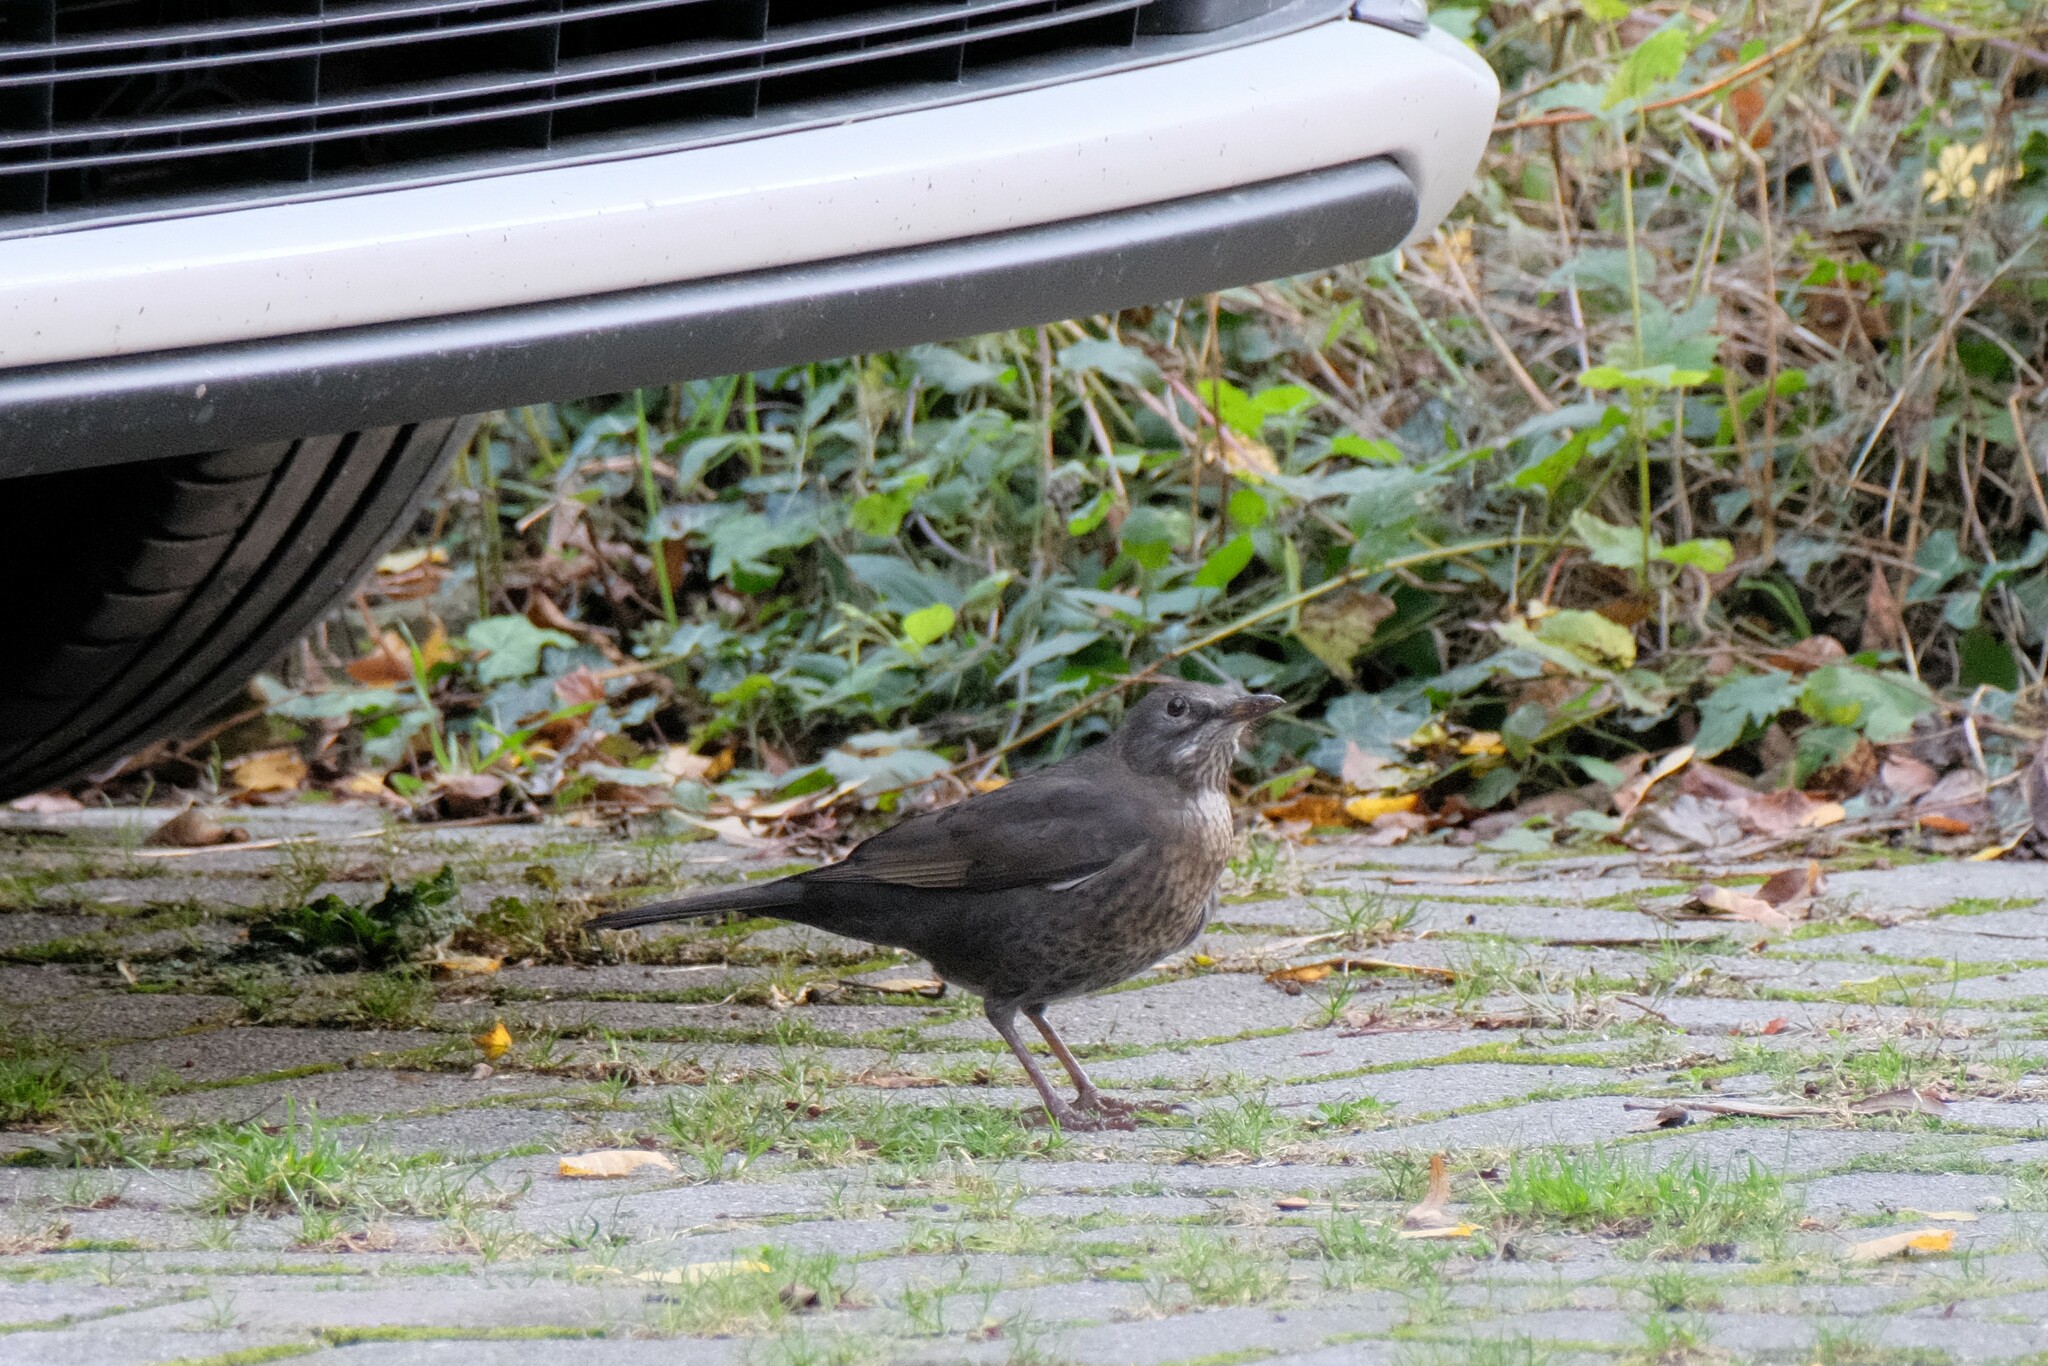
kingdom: Animalia
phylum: Chordata
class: Aves
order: Passeriformes
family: Turdidae
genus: Turdus
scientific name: Turdus merula
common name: Common blackbird
